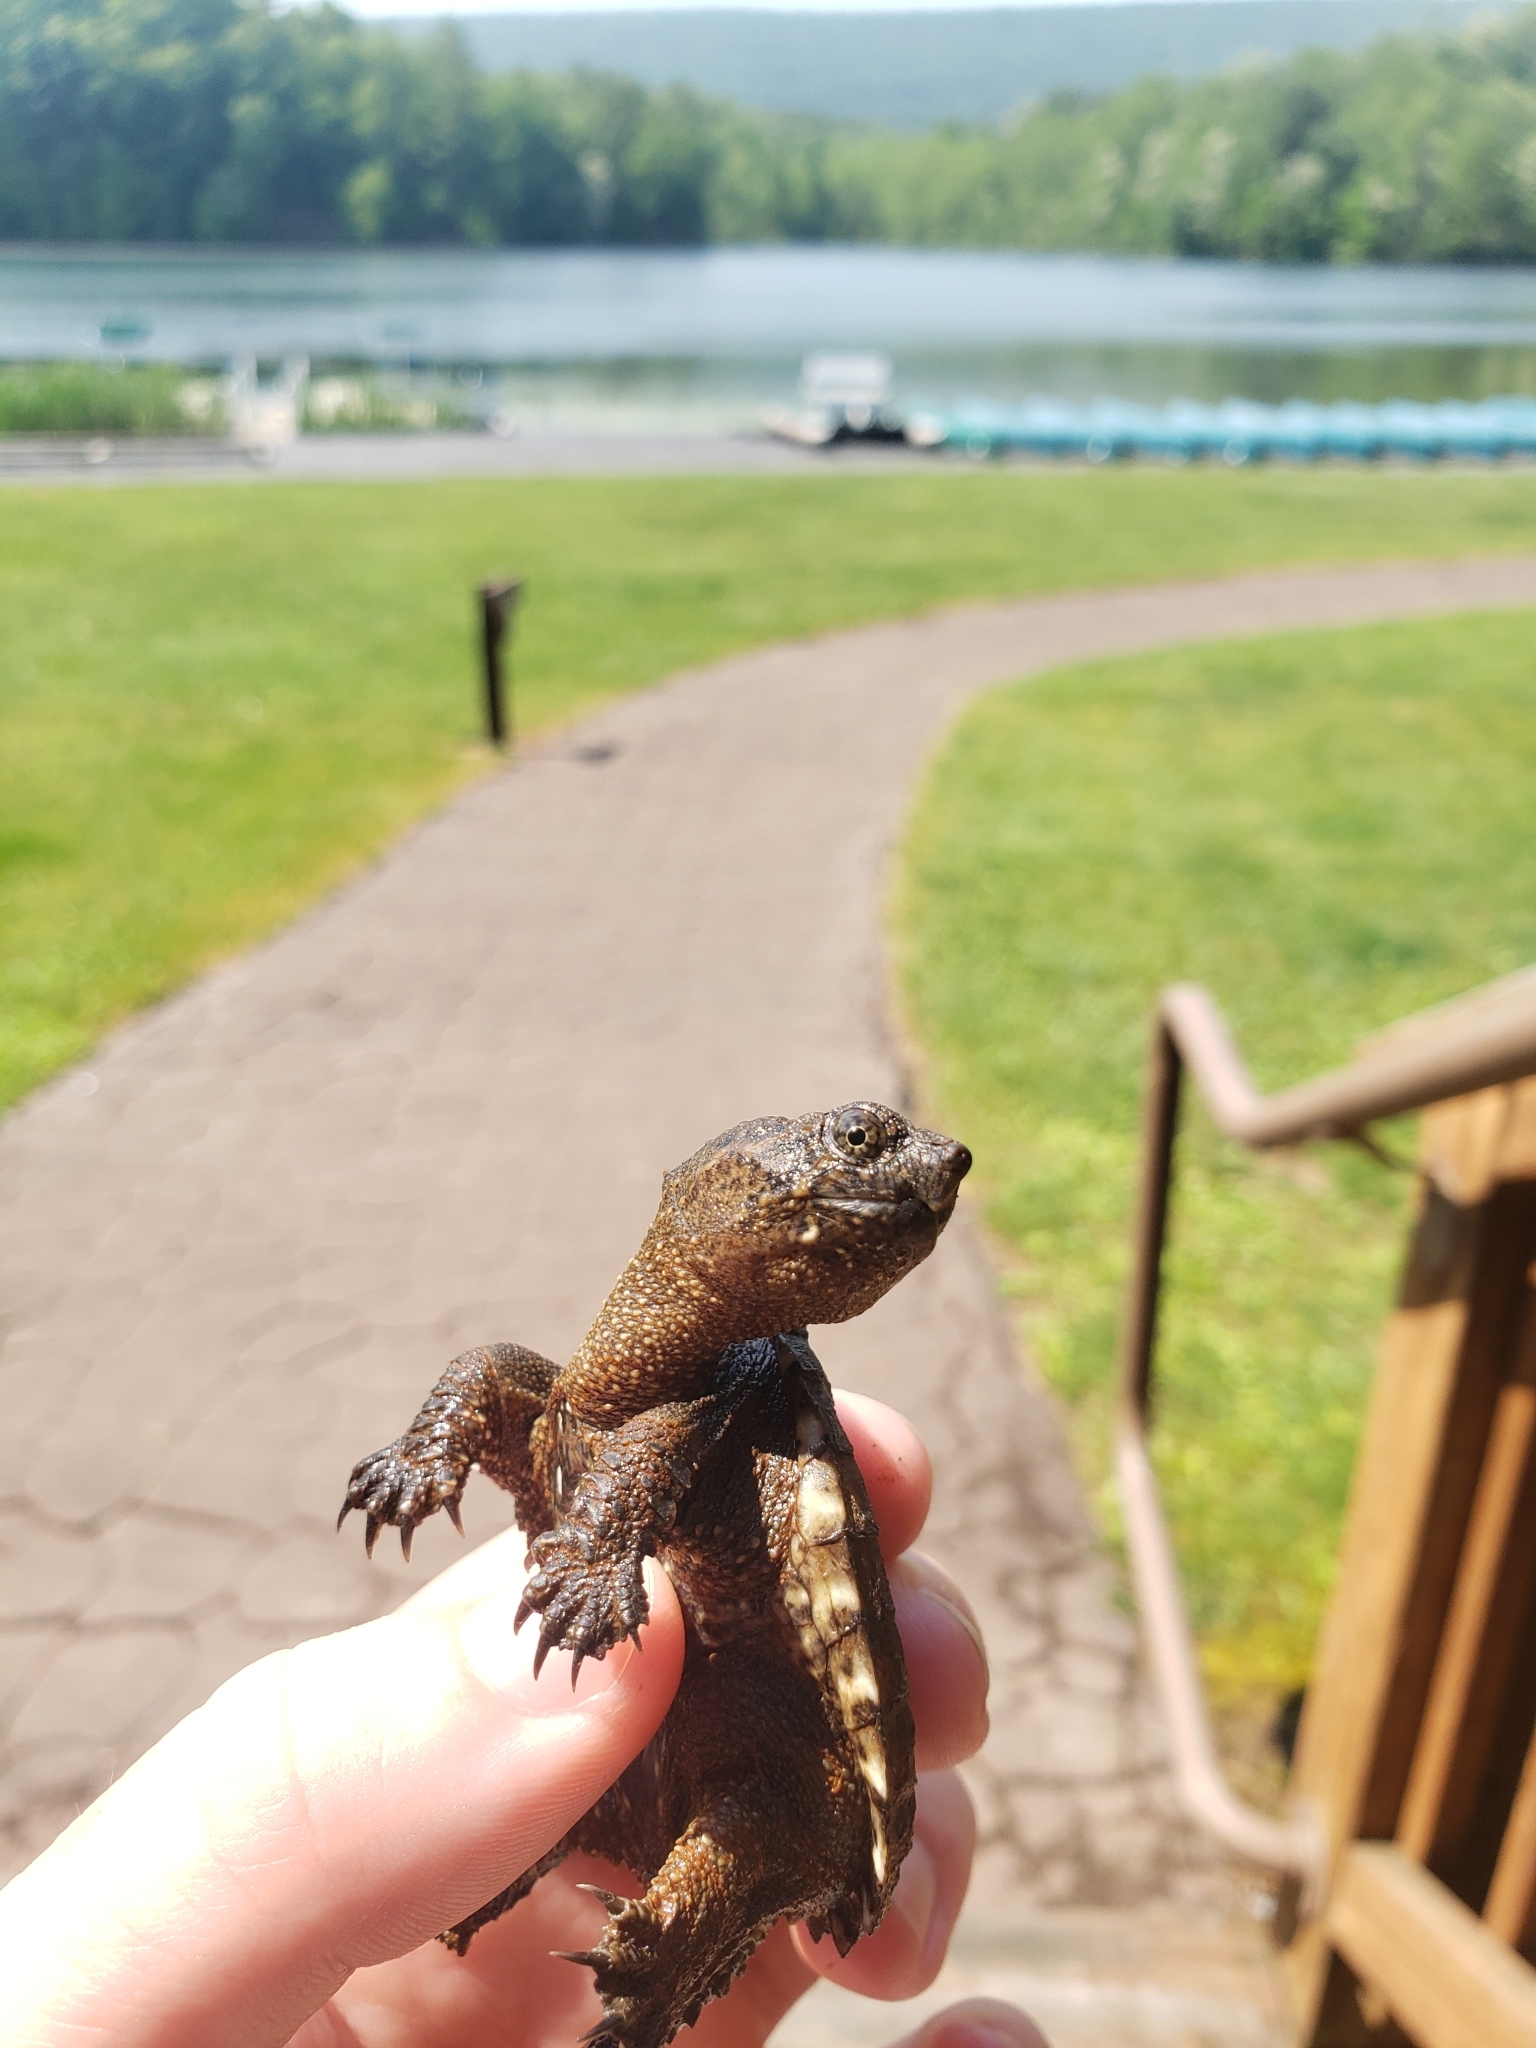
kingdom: Animalia
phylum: Chordata
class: Testudines
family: Chelydridae
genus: Chelydra
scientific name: Chelydra serpentina
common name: Common snapping turtle
